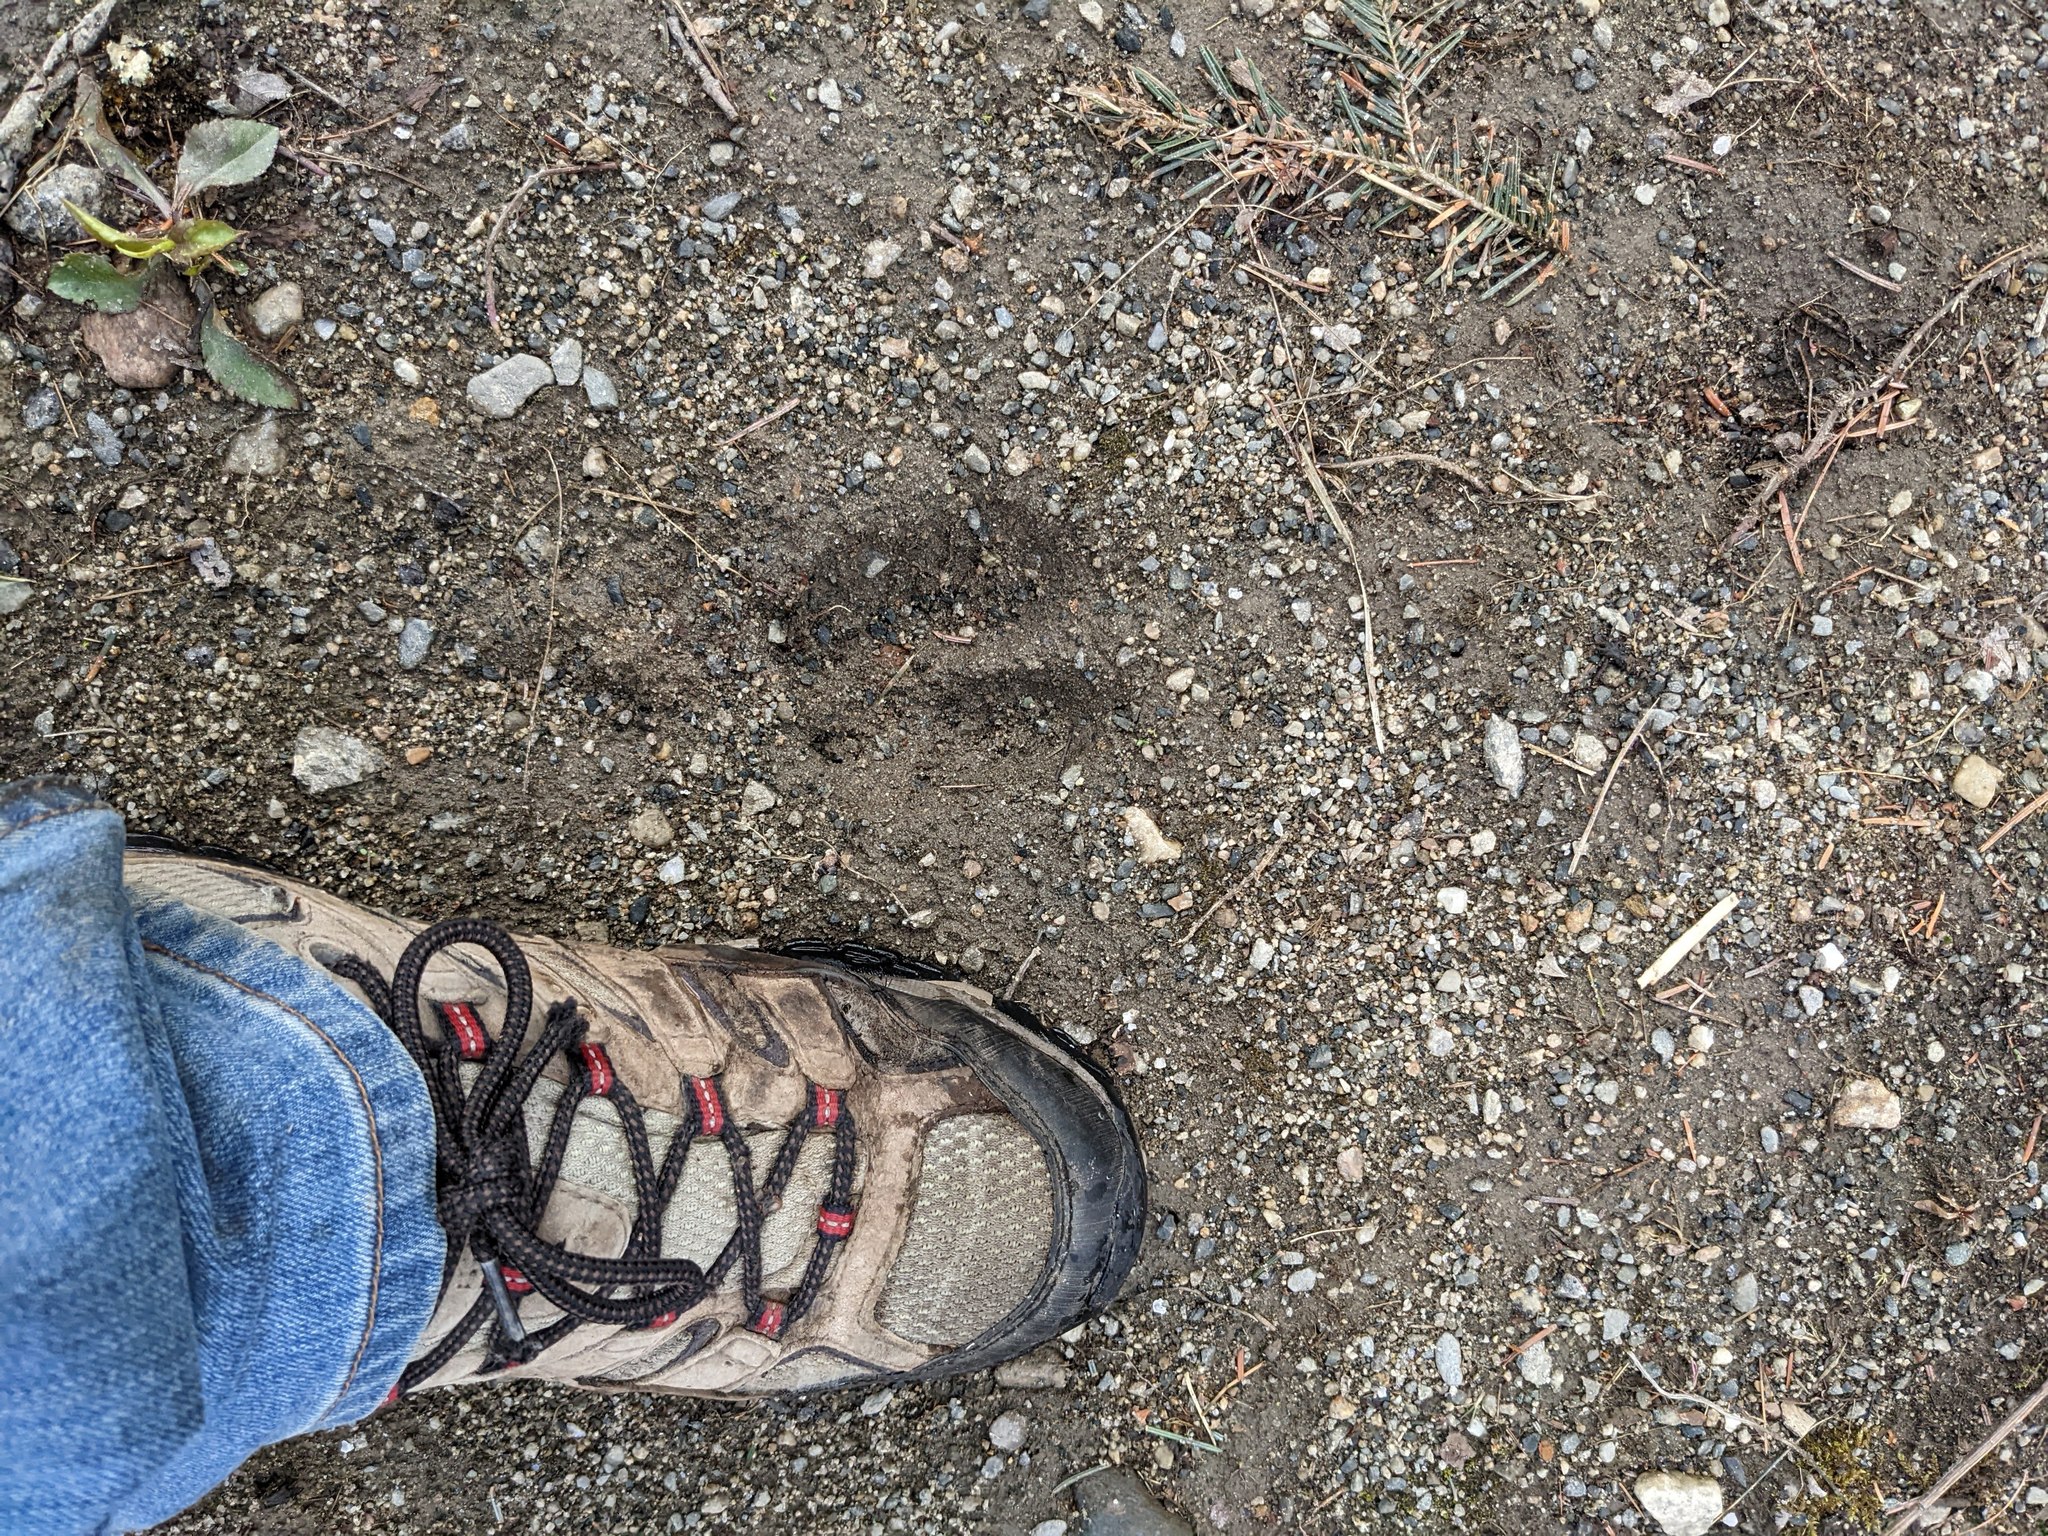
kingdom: Animalia
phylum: Chordata
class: Mammalia
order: Artiodactyla
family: Cervidae
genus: Odocoileus
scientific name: Odocoileus virginianus
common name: White-tailed deer
